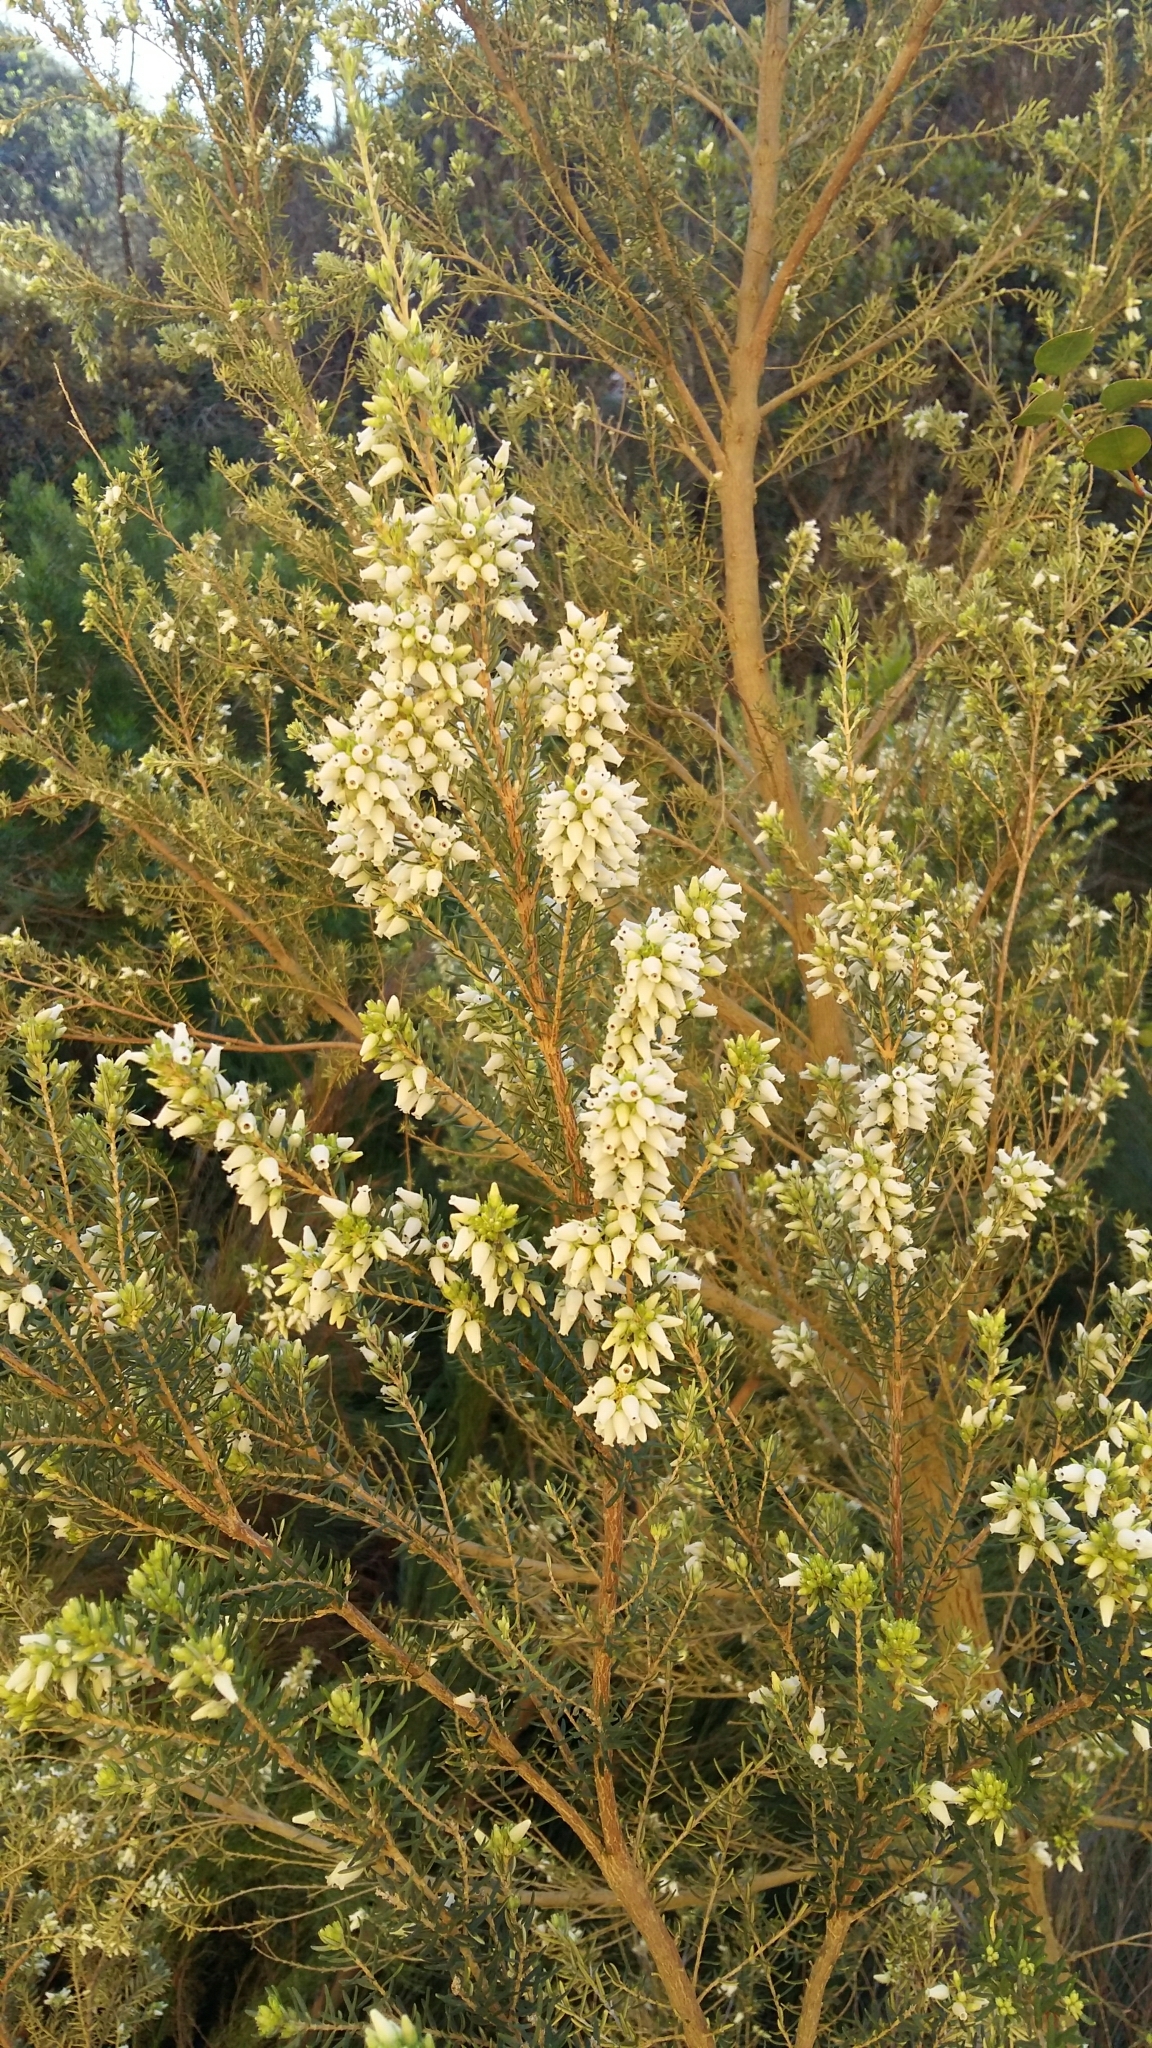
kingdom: Plantae
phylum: Tracheophyta
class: Magnoliopsida
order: Ericales
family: Ericaceae
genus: Erica
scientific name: Erica caffra
